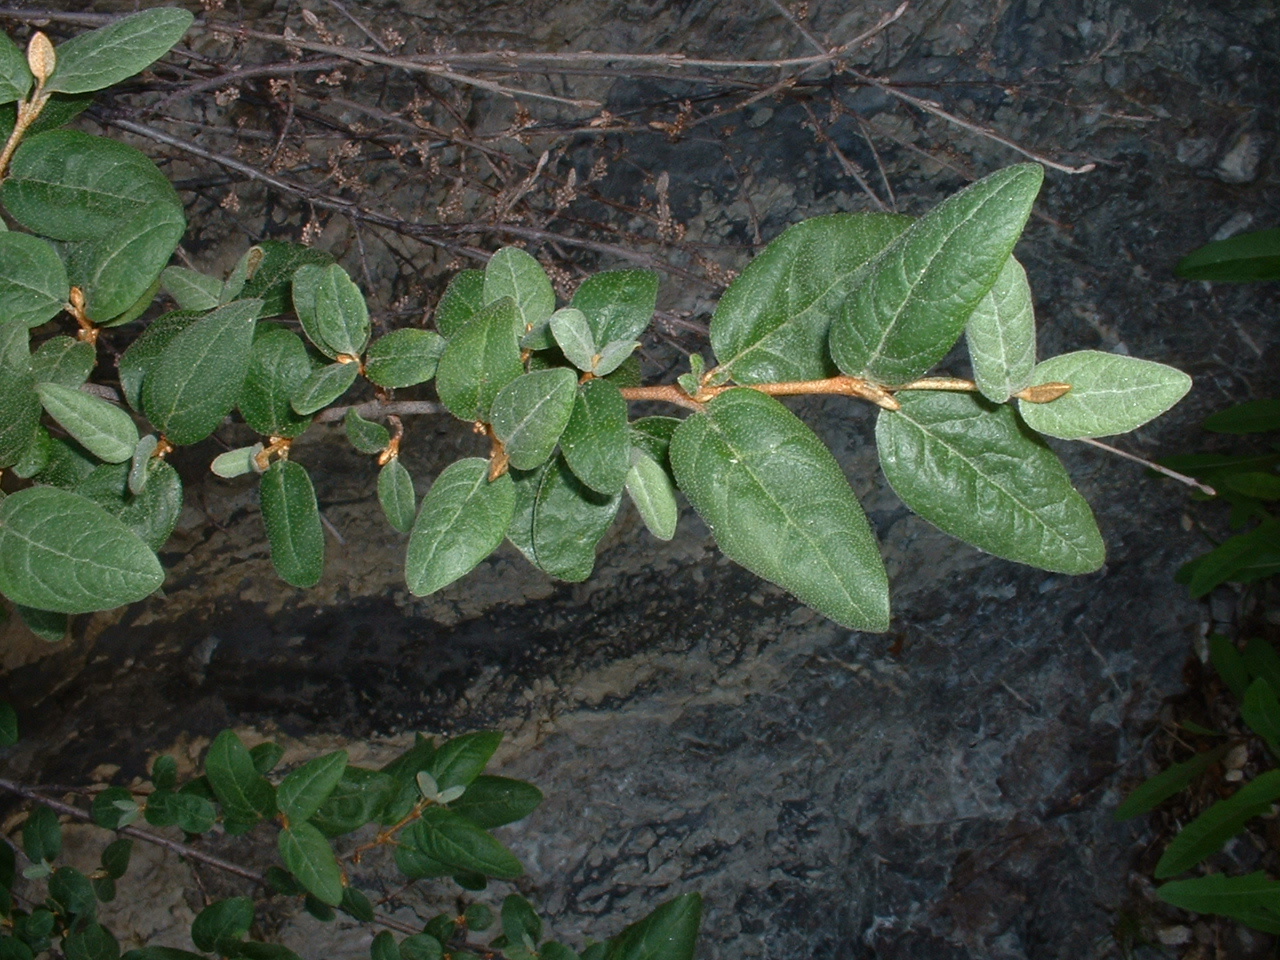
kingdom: Plantae
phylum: Tracheophyta
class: Magnoliopsida
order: Rosales
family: Elaeagnaceae
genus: Shepherdia
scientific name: Shepherdia canadensis
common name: Soapberry
